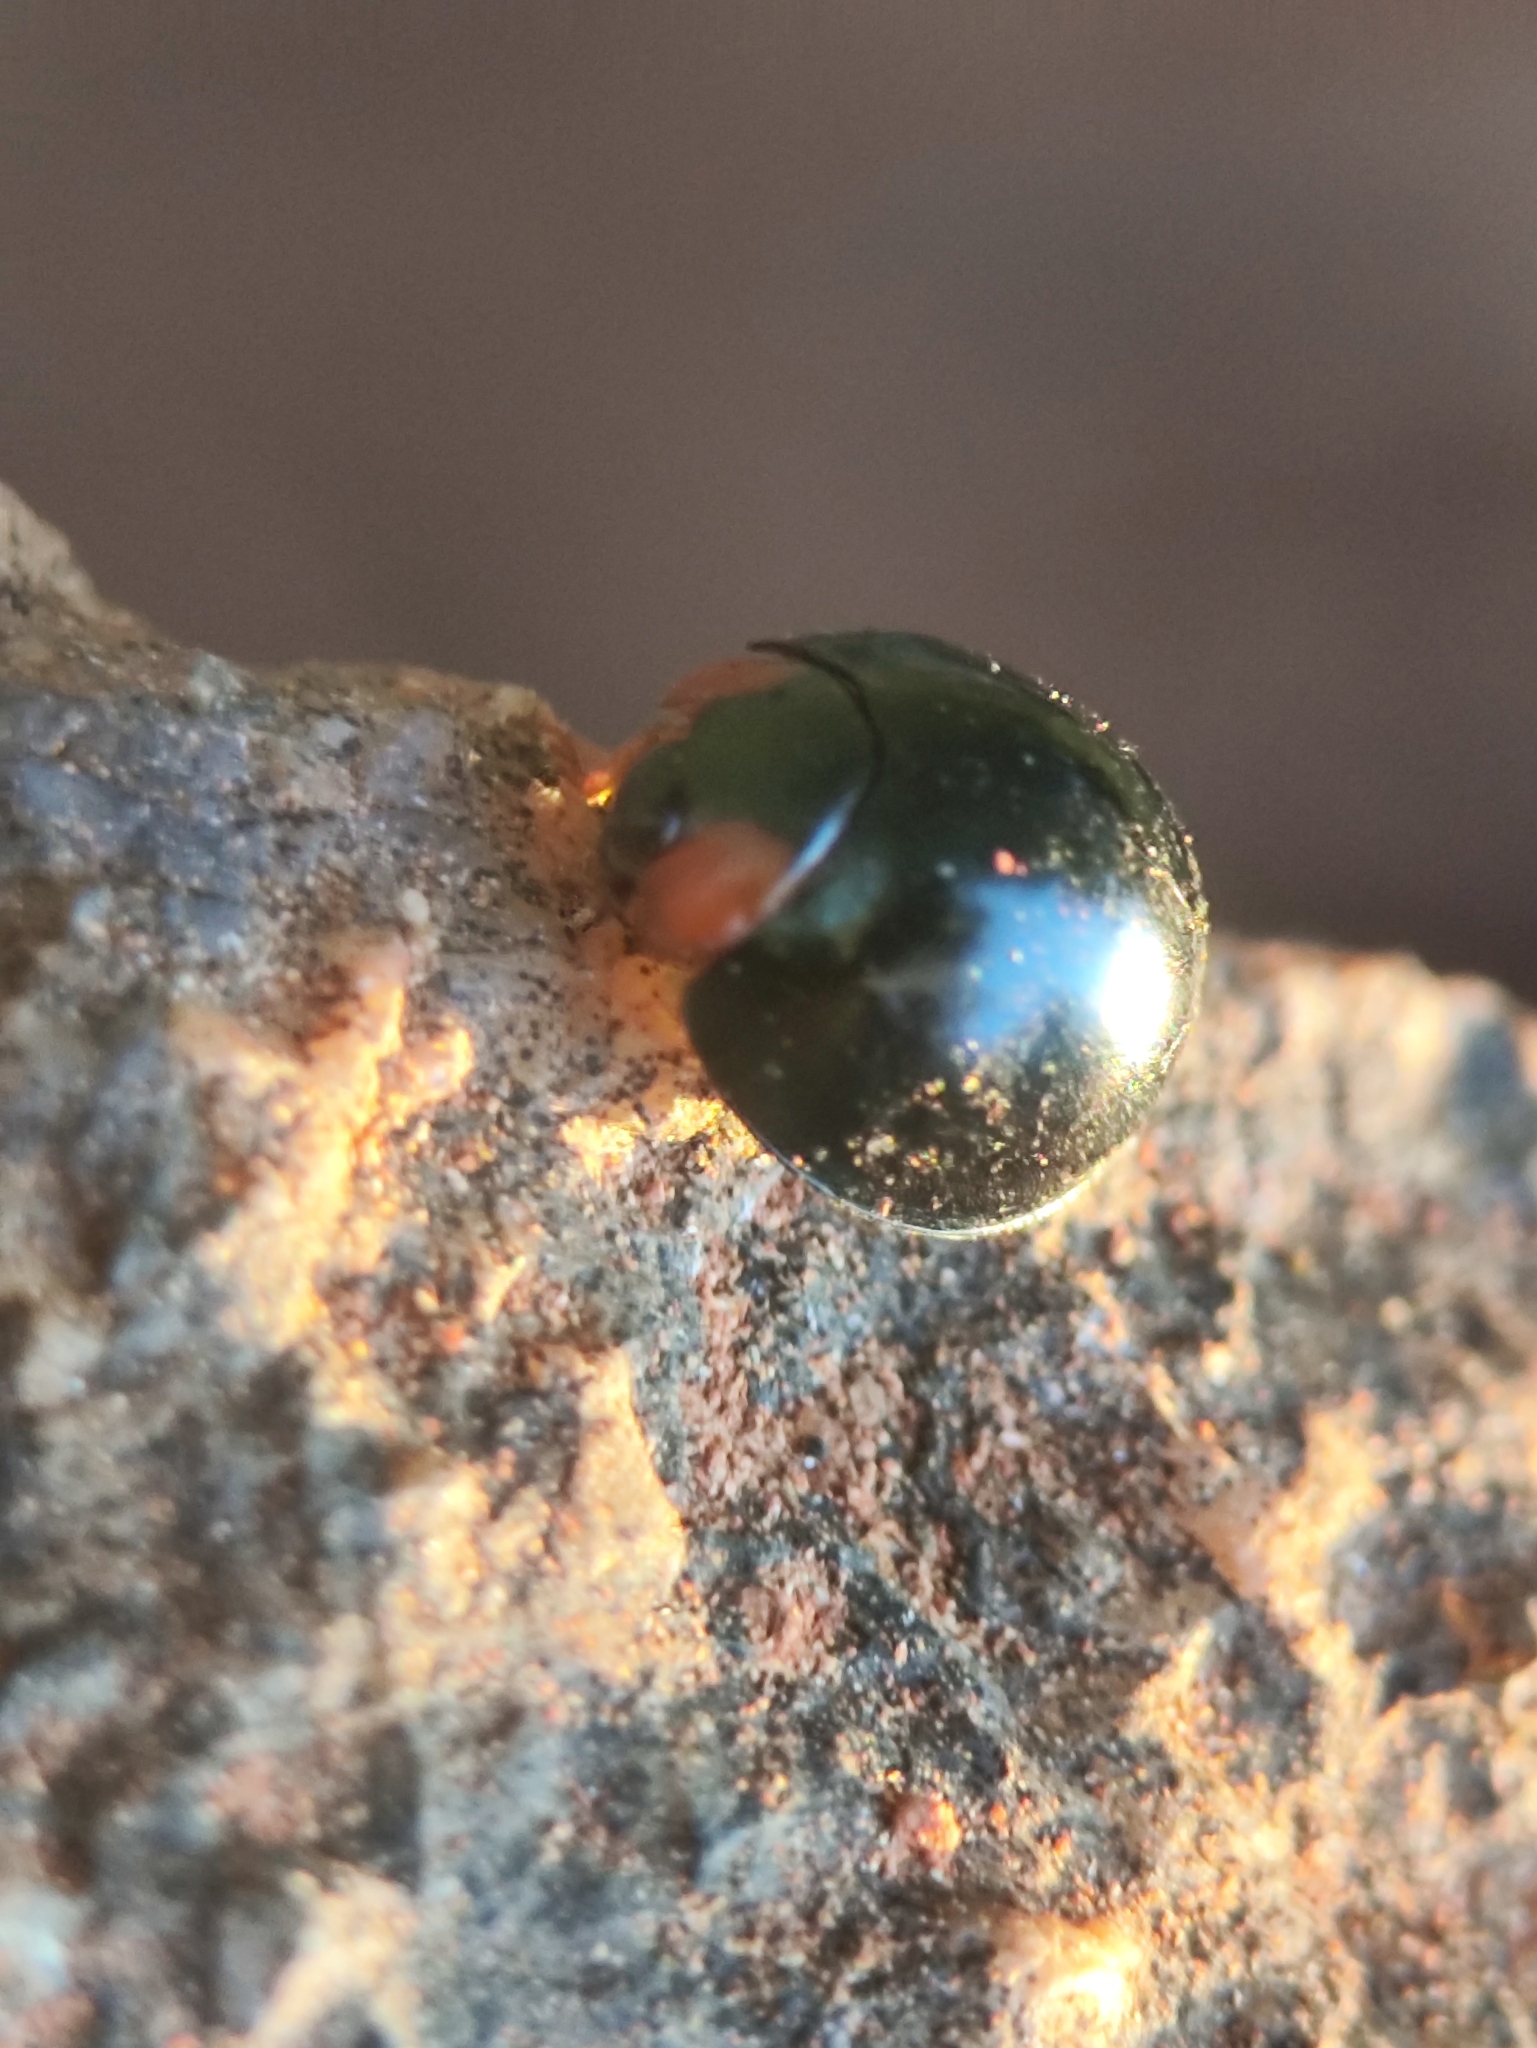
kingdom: Animalia
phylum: Arthropoda
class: Insecta
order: Coleoptera
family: Coccinellidae
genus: Curinus
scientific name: Curinus coeruleus
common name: Ladybird beetle
